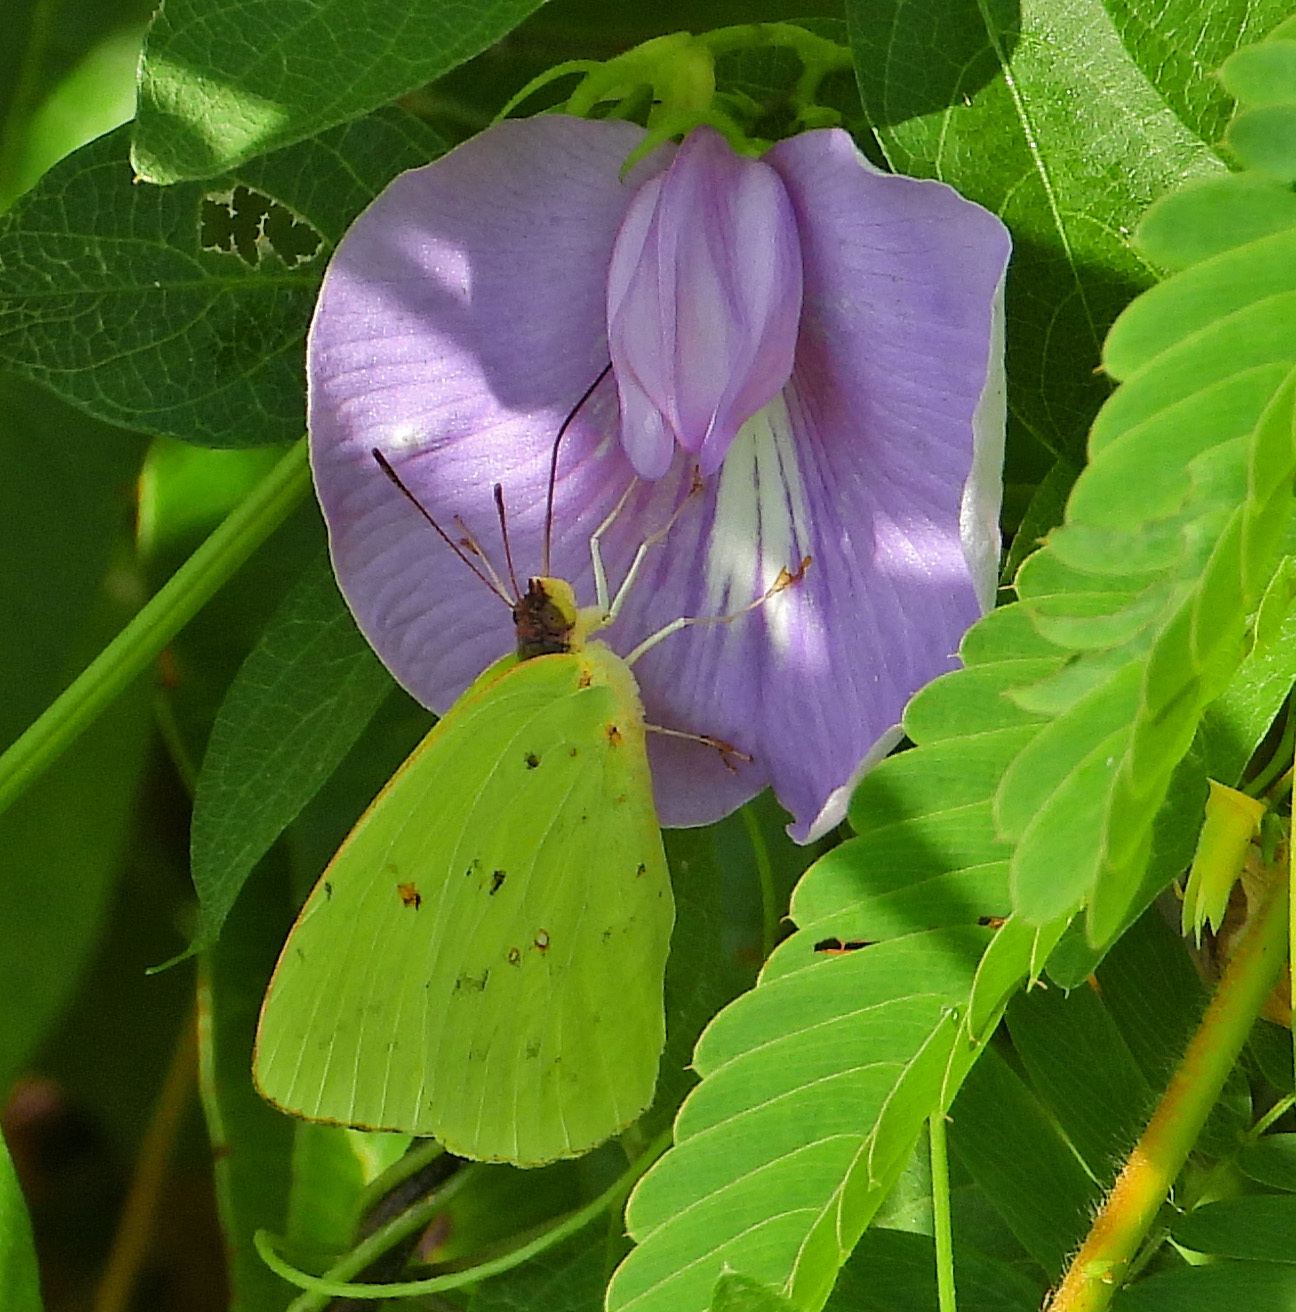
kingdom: Animalia
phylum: Arthropoda
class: Insecta
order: Lepidoptera
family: Pieridae
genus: Phoebis
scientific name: Phoebis sennae
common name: Cloudless sulphur
